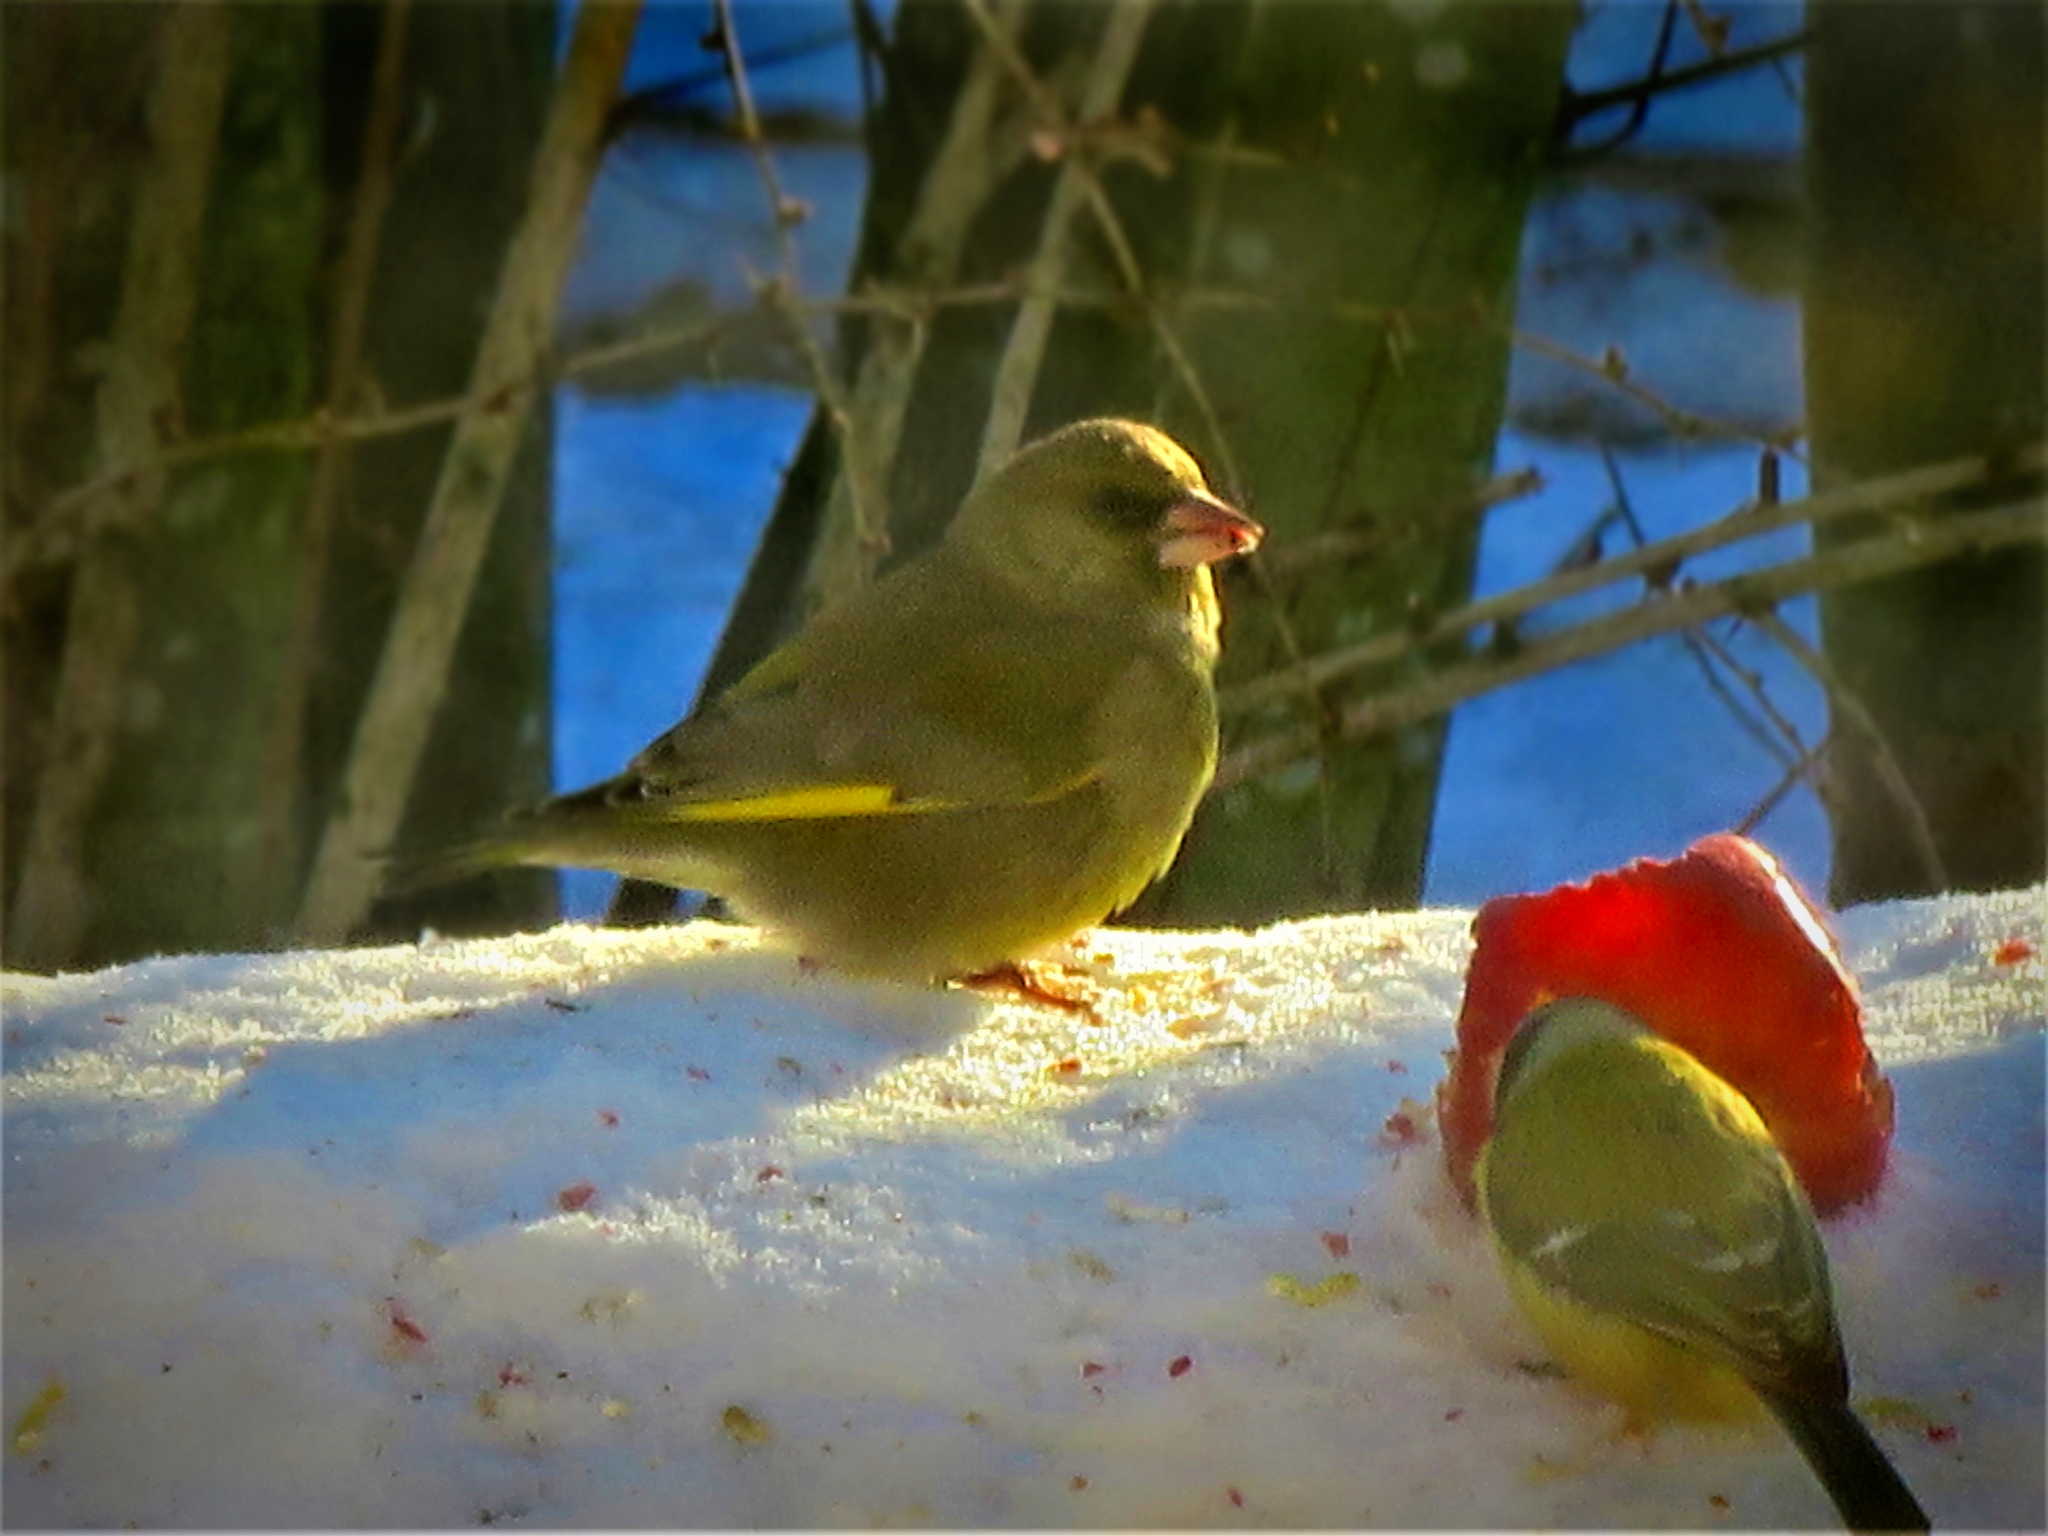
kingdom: Plantae
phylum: Tracheophyta
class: Liliopsida
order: Poales
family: Poaceae
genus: Chloris
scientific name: Chloris chloris
